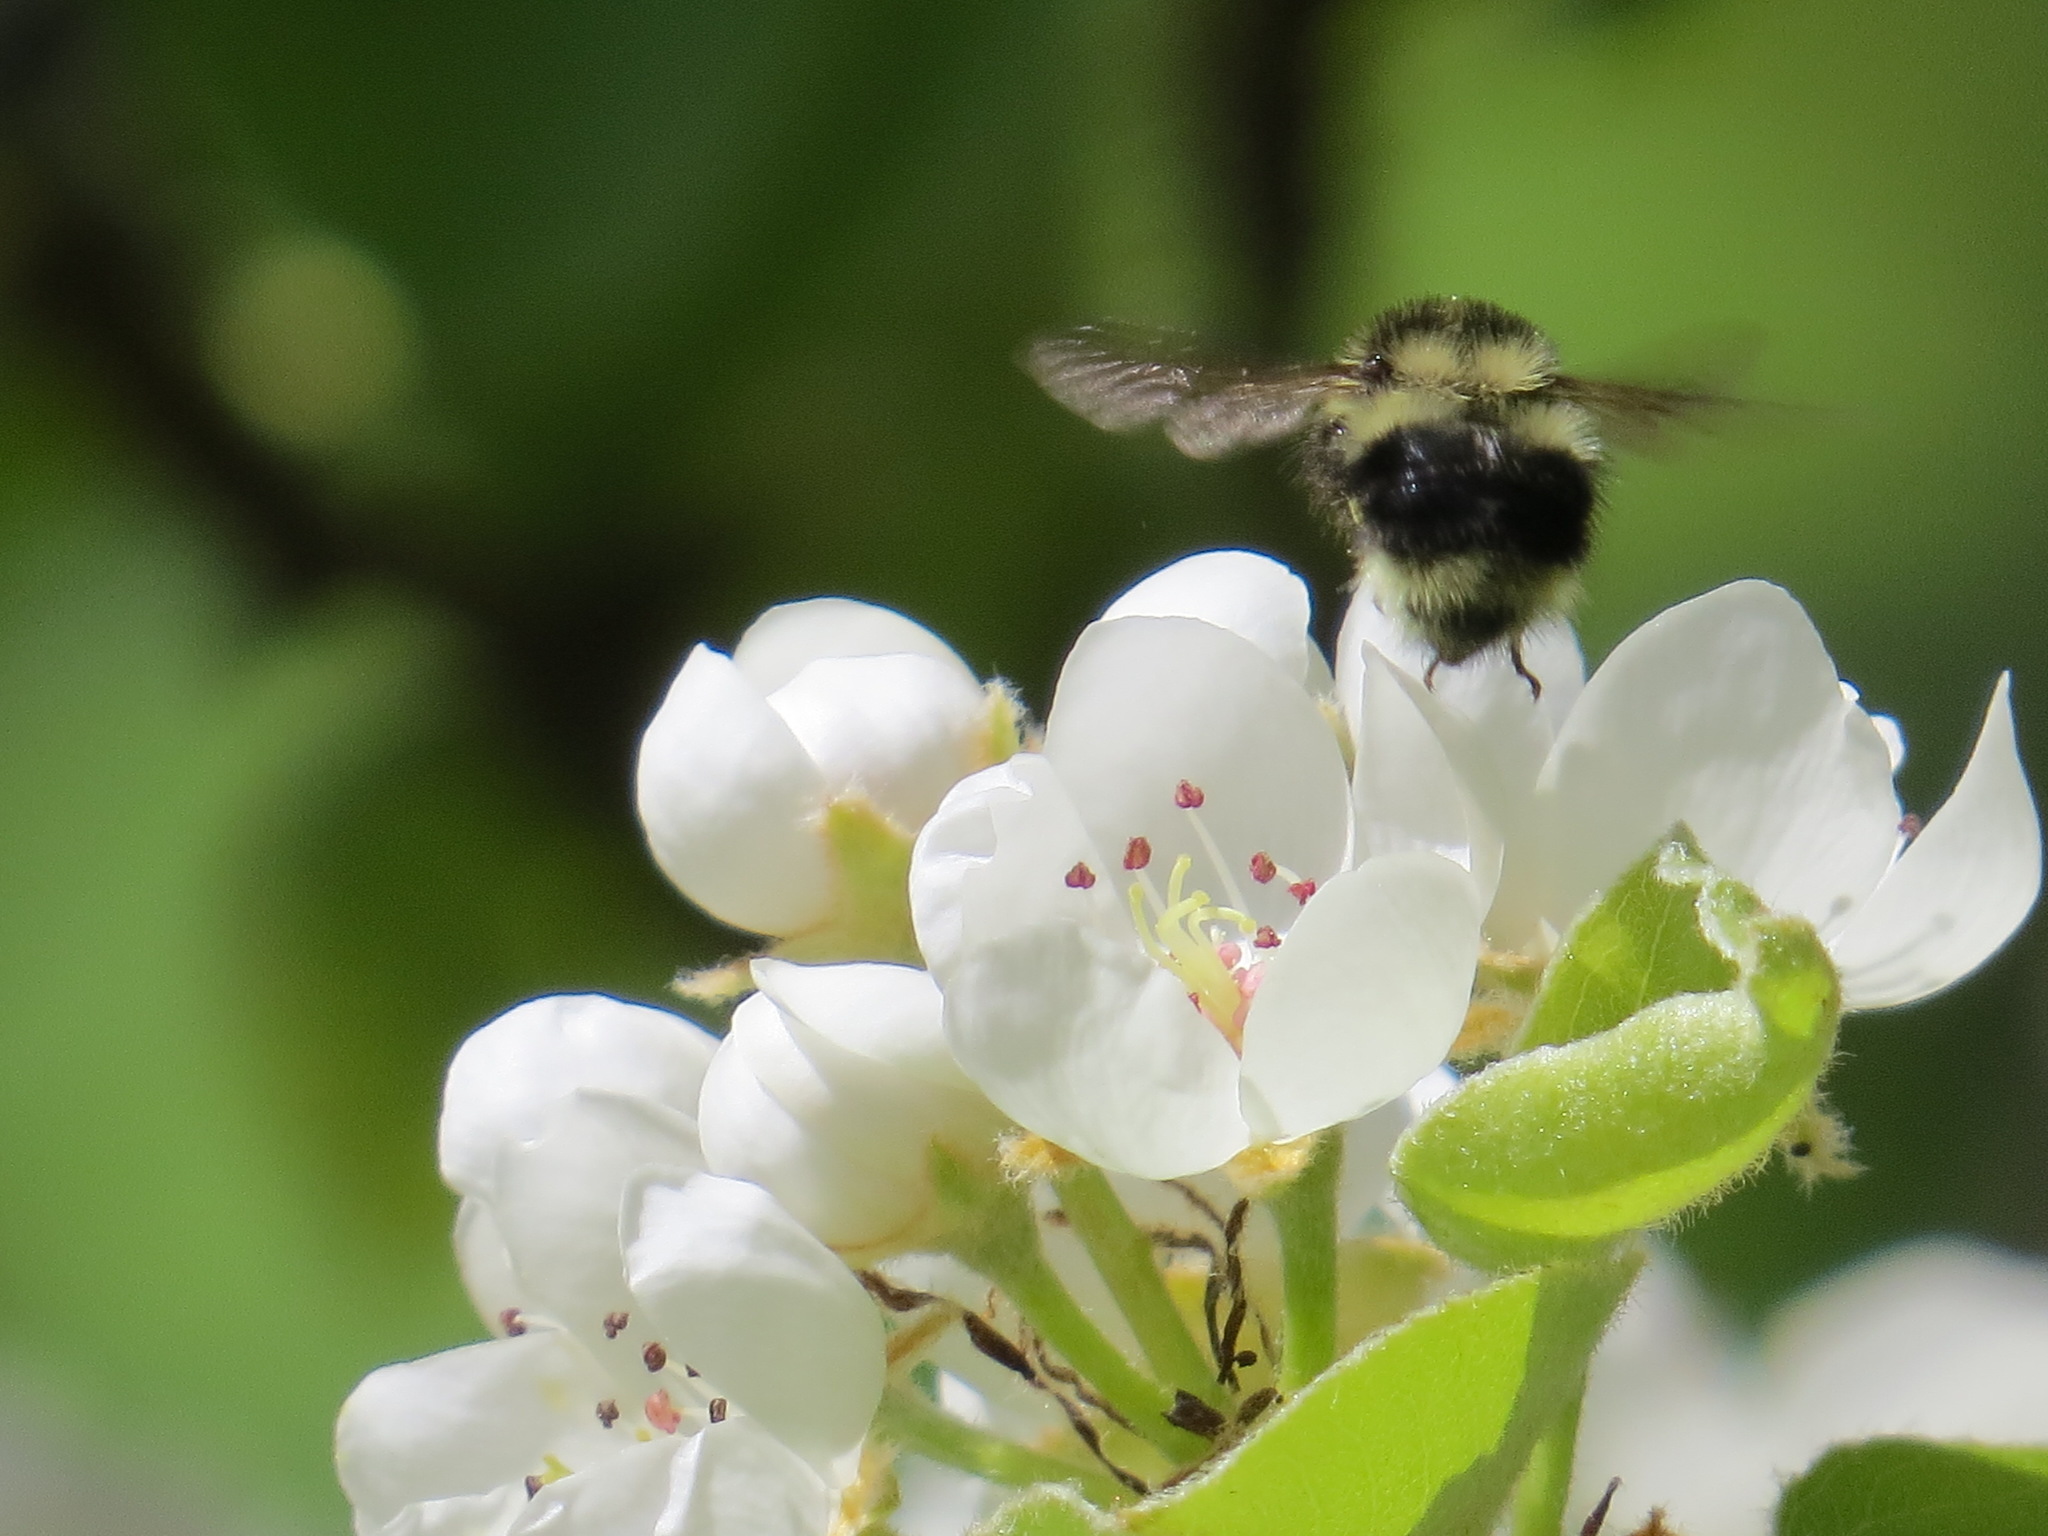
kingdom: Animalia
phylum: Arthropoda
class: Insecta
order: Hymenoptera
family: Apidae
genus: Bombus
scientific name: Bombus melanopygus
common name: Black tail bumble bee
